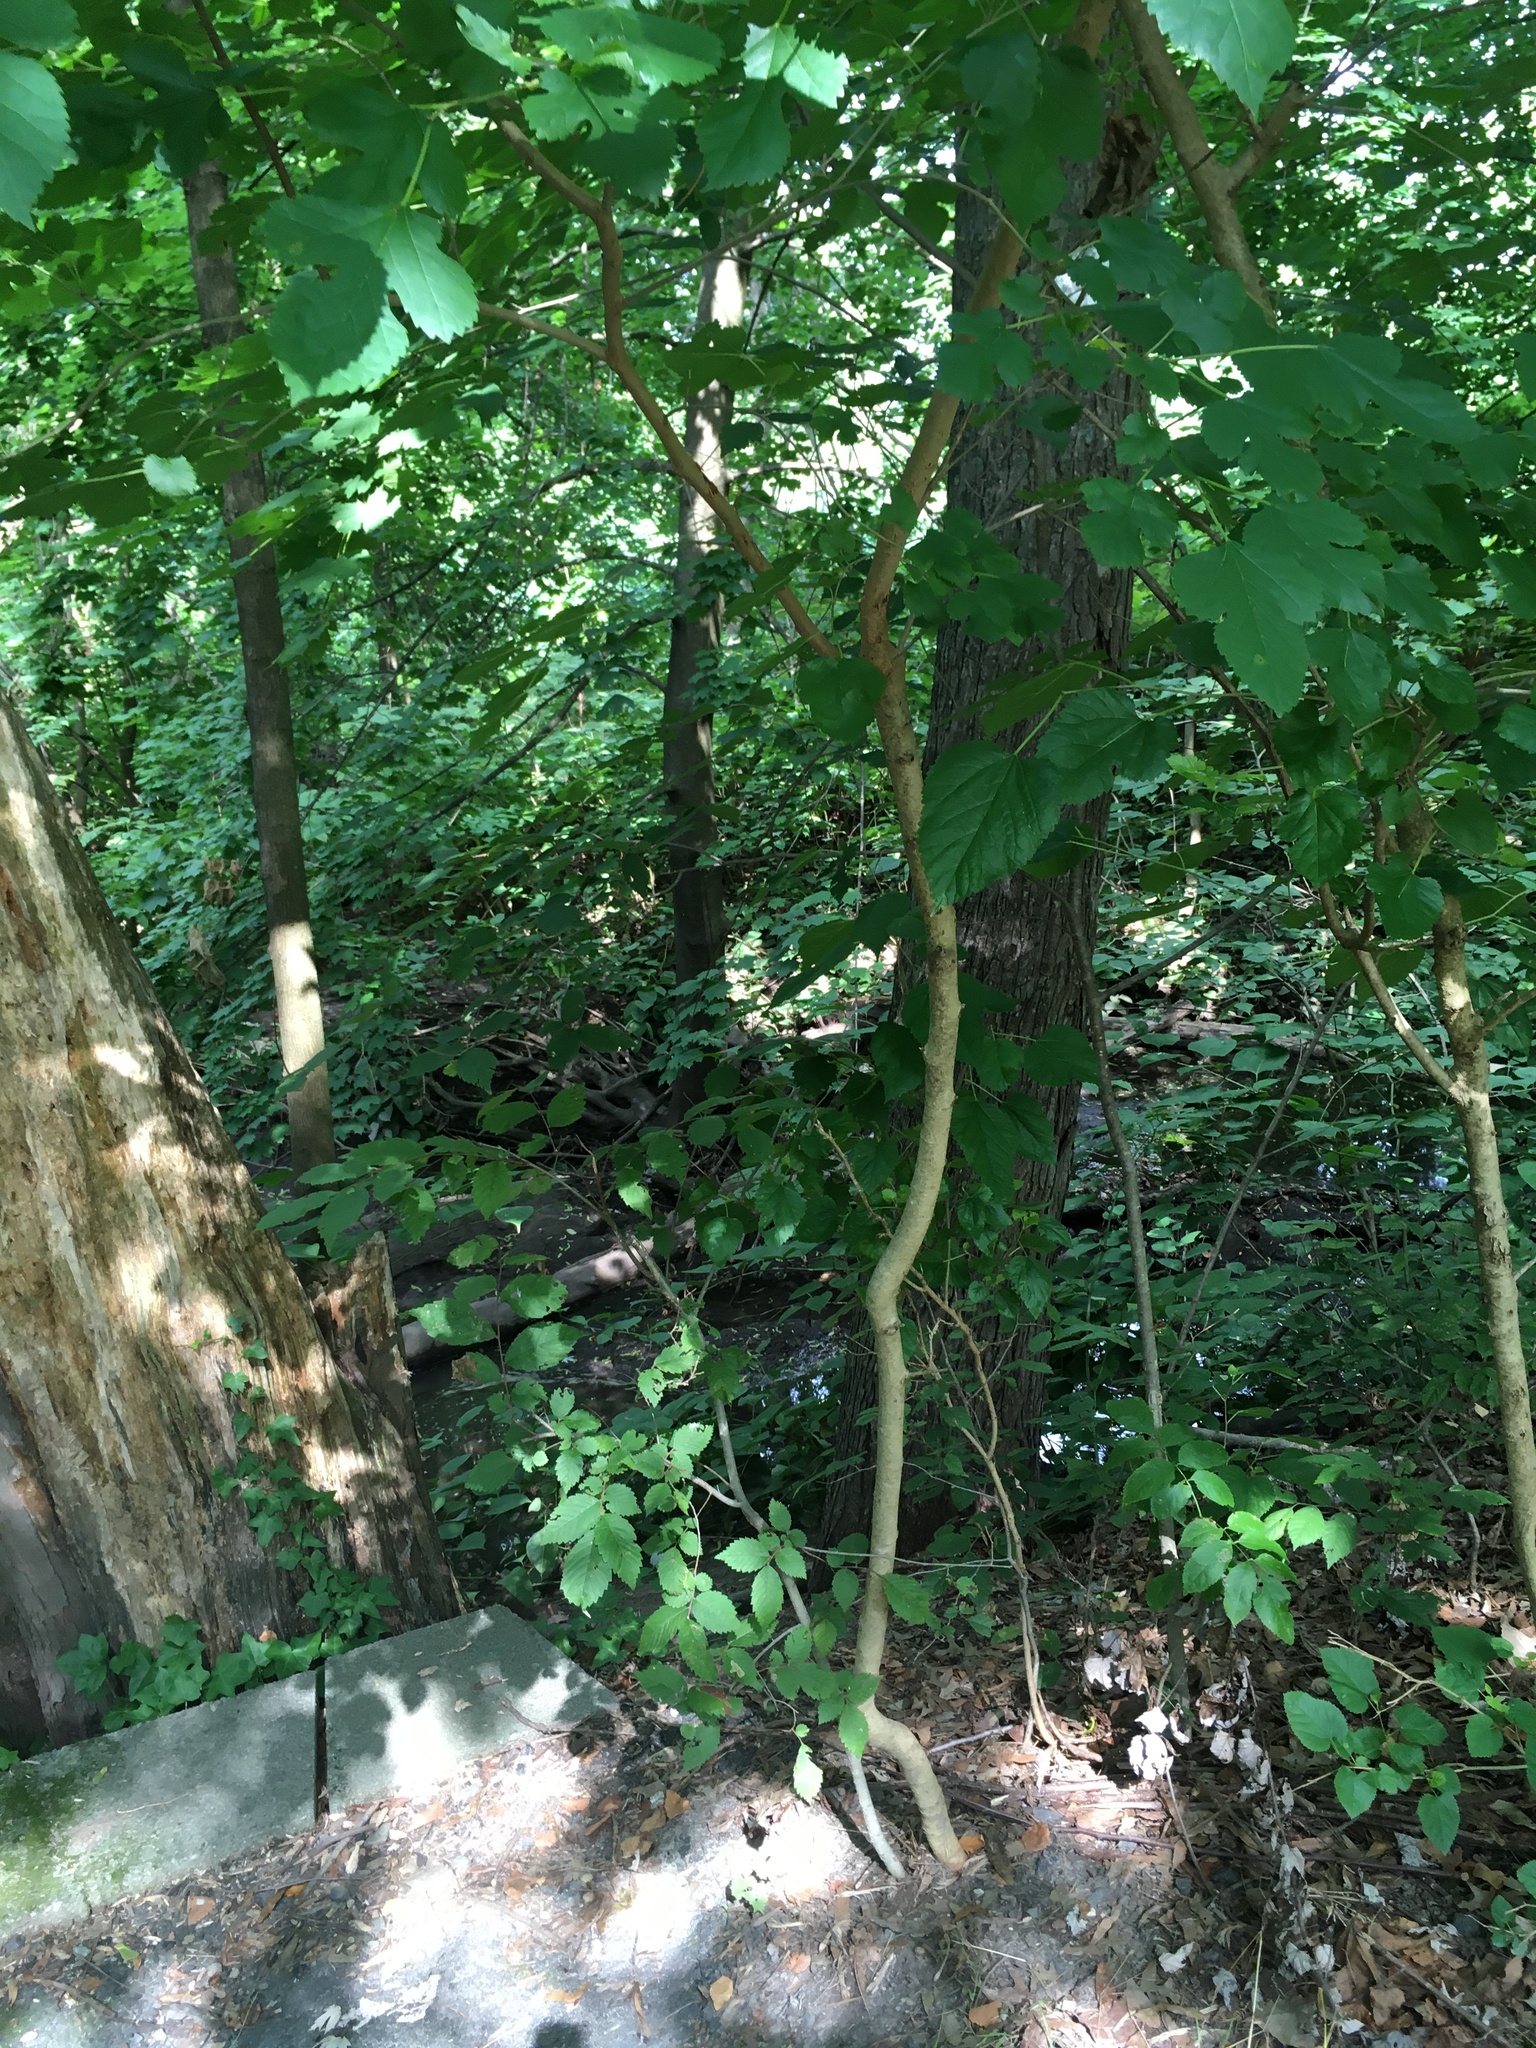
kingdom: Plantae
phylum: Tracheophyta
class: Magnoliopsida
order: Rosales
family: Moraceae
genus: Morus
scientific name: Morus alba
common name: White mulberry
